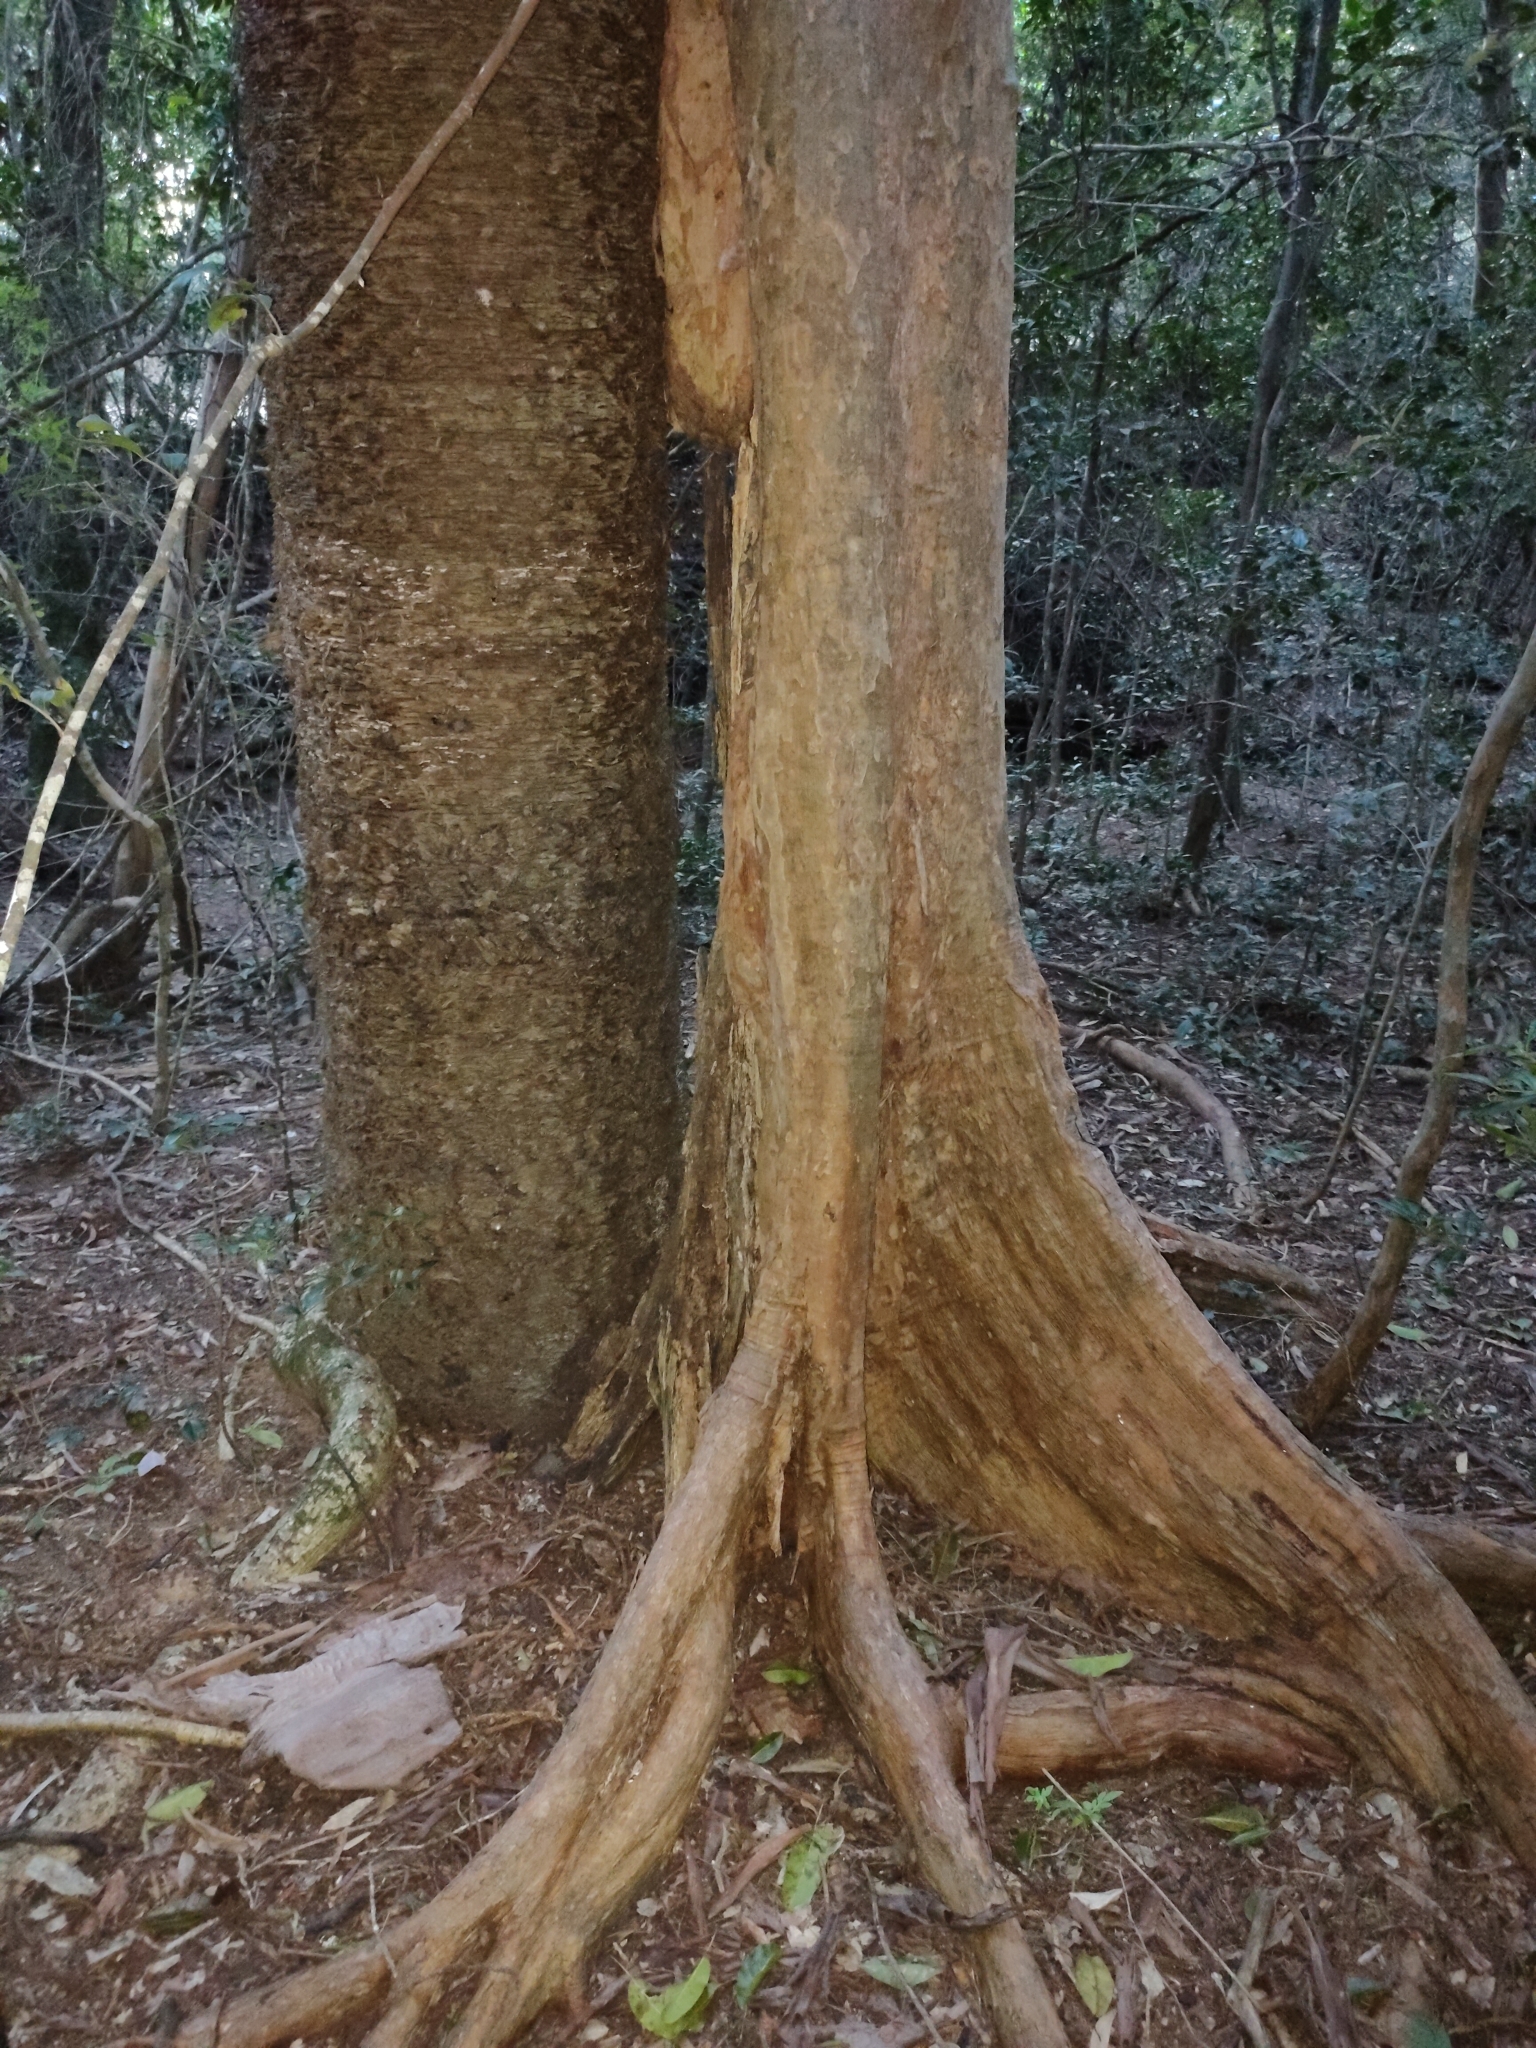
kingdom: Plantae
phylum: Tracheophyta
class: Pinopsida
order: Pinales
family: Araucariaceae
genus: Araucaria
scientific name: Araucaria cunninghamii
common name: Colonial pine
